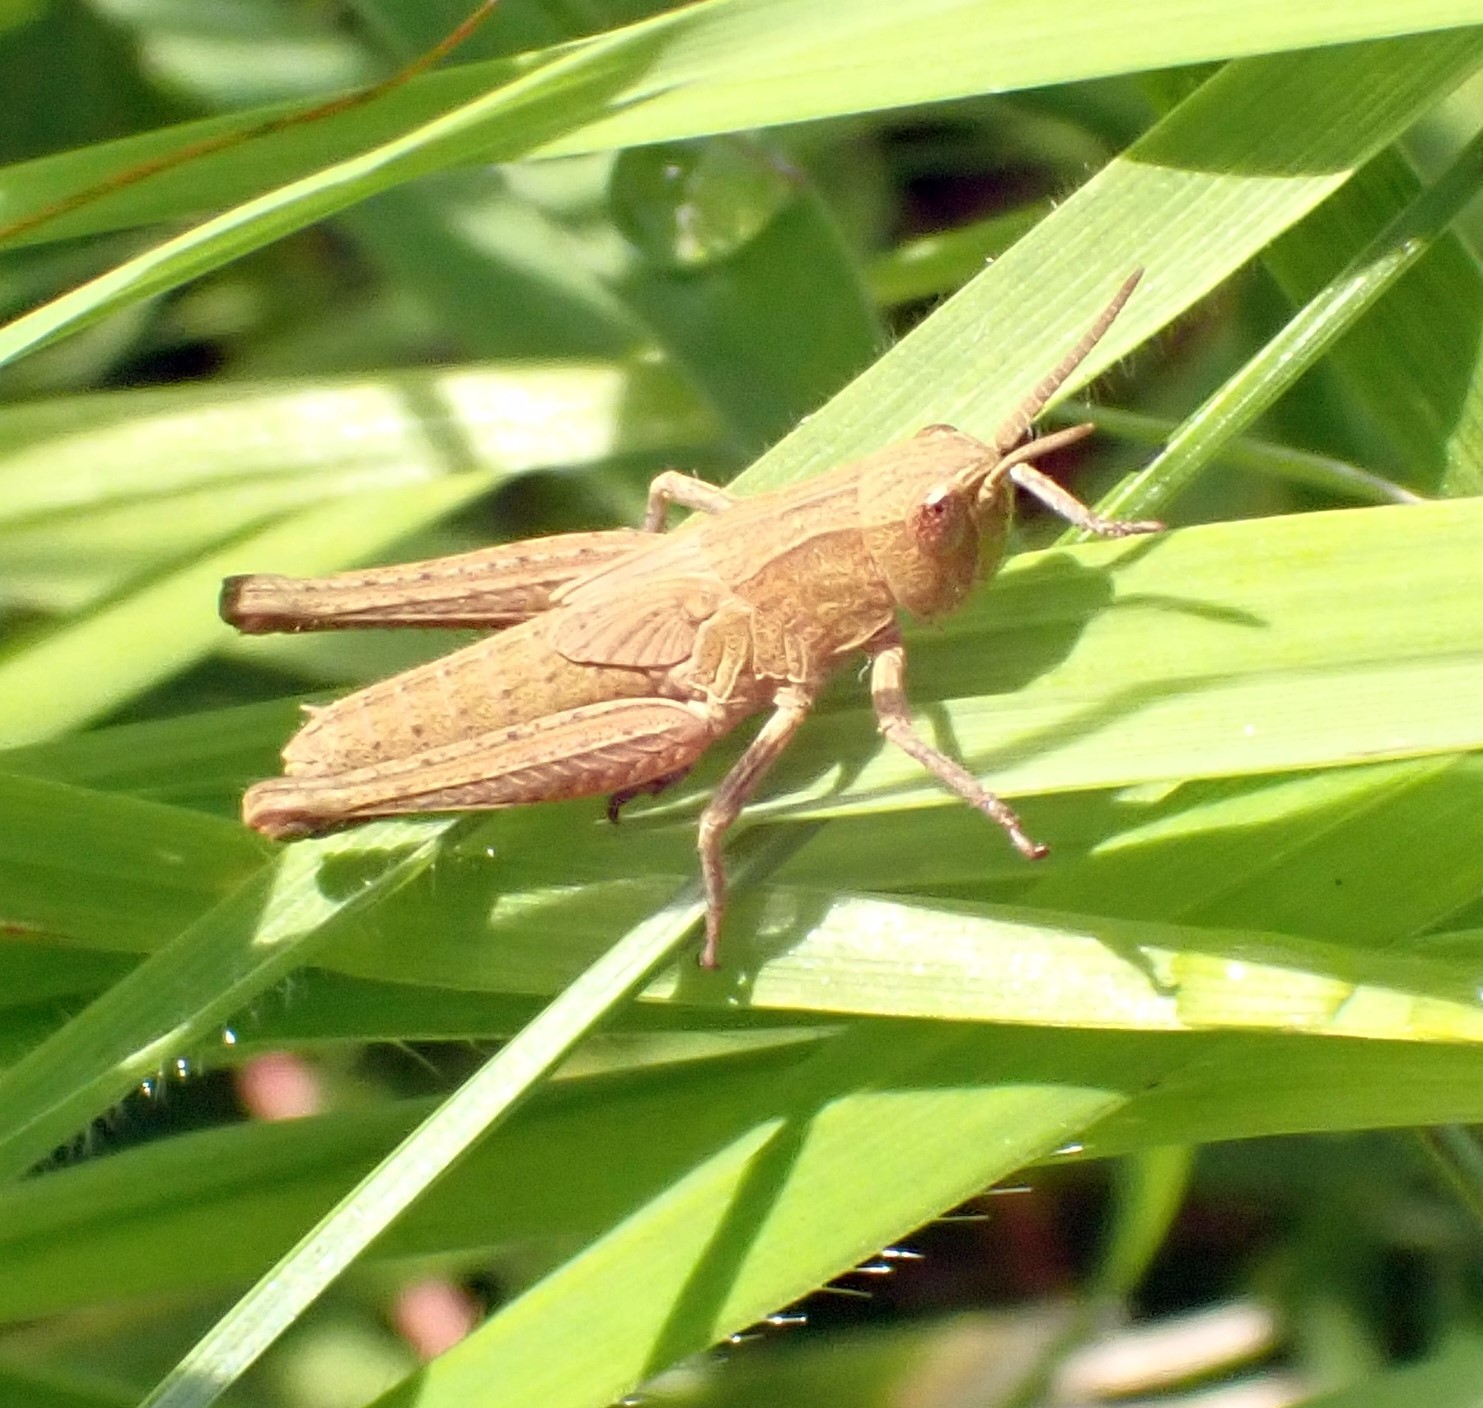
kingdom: Animalia
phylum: Arthropoda
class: Insecta
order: Orthoptera
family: Acrididae
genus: Chorthippus
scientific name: Chorthippus dorsatus
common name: Steppe grasshopper
